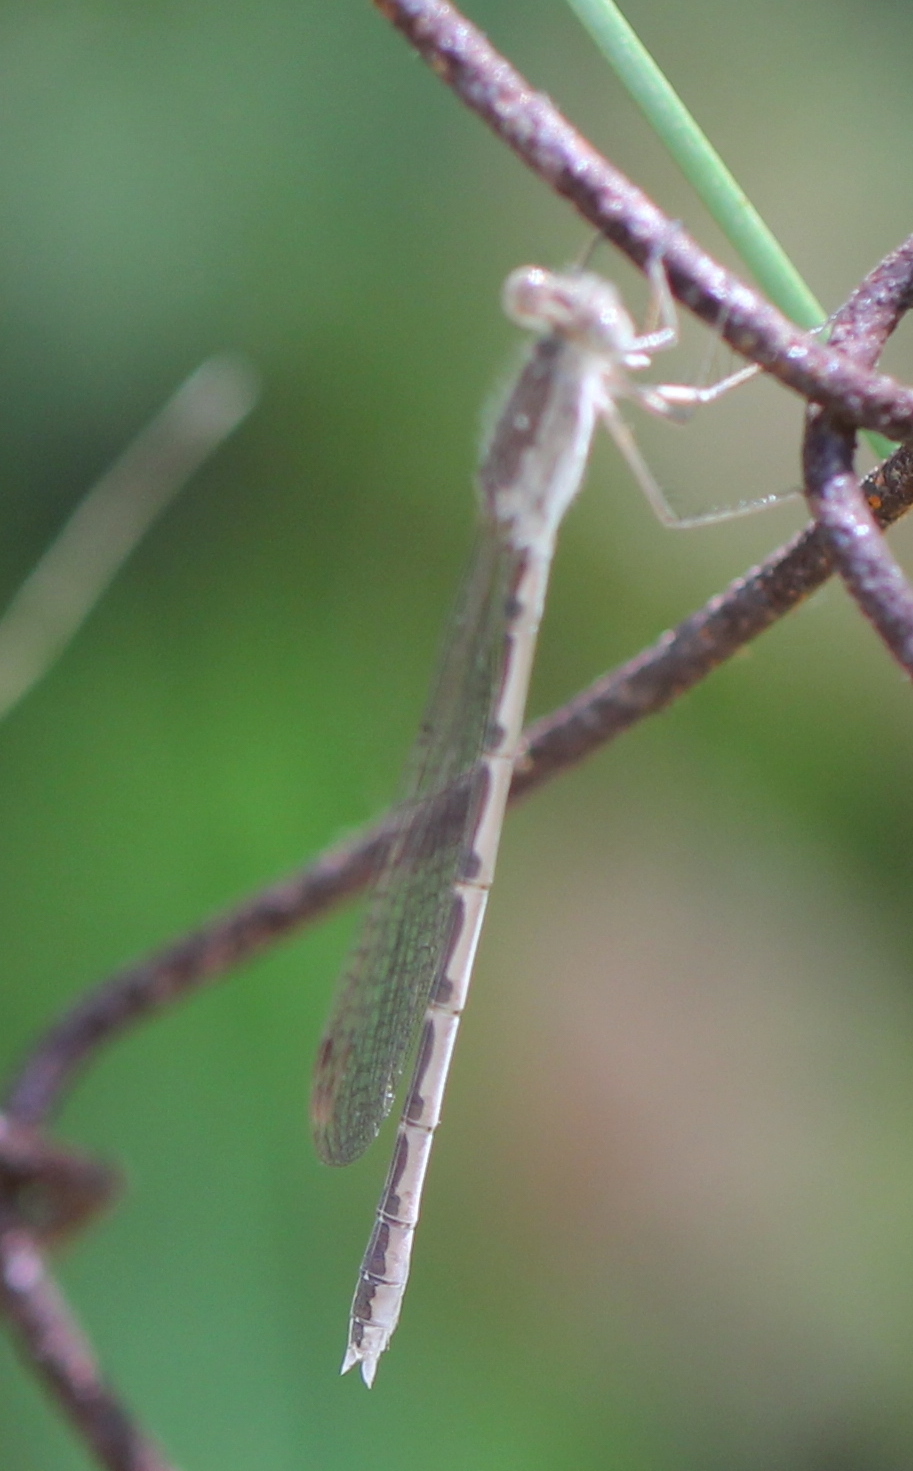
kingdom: Animalia
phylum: Arthropoda
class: Insecta
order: Odonata
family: Lestidae
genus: Sympecma
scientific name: Sympecma paedisca
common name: Siberian winter damsel
